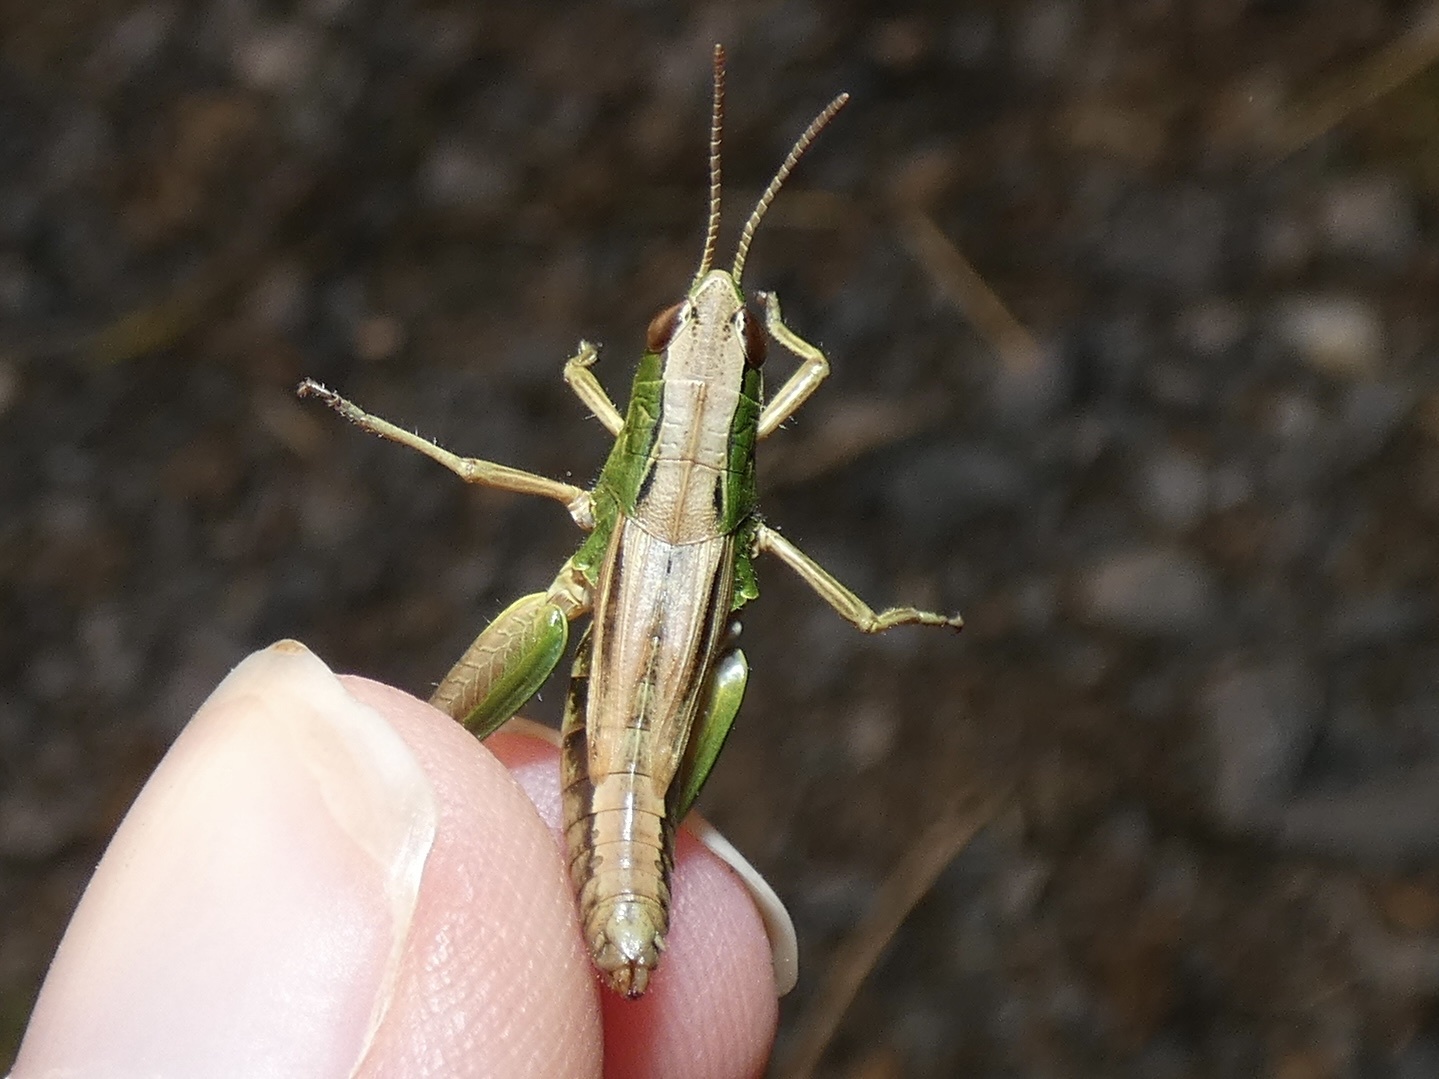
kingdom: Animalia
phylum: Arthropoda
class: Insecta
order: Orthoptera
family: Acrididae
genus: Pseudochorthippus
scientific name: Pseudochorthippus parallelus
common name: Meadow grasshopper
